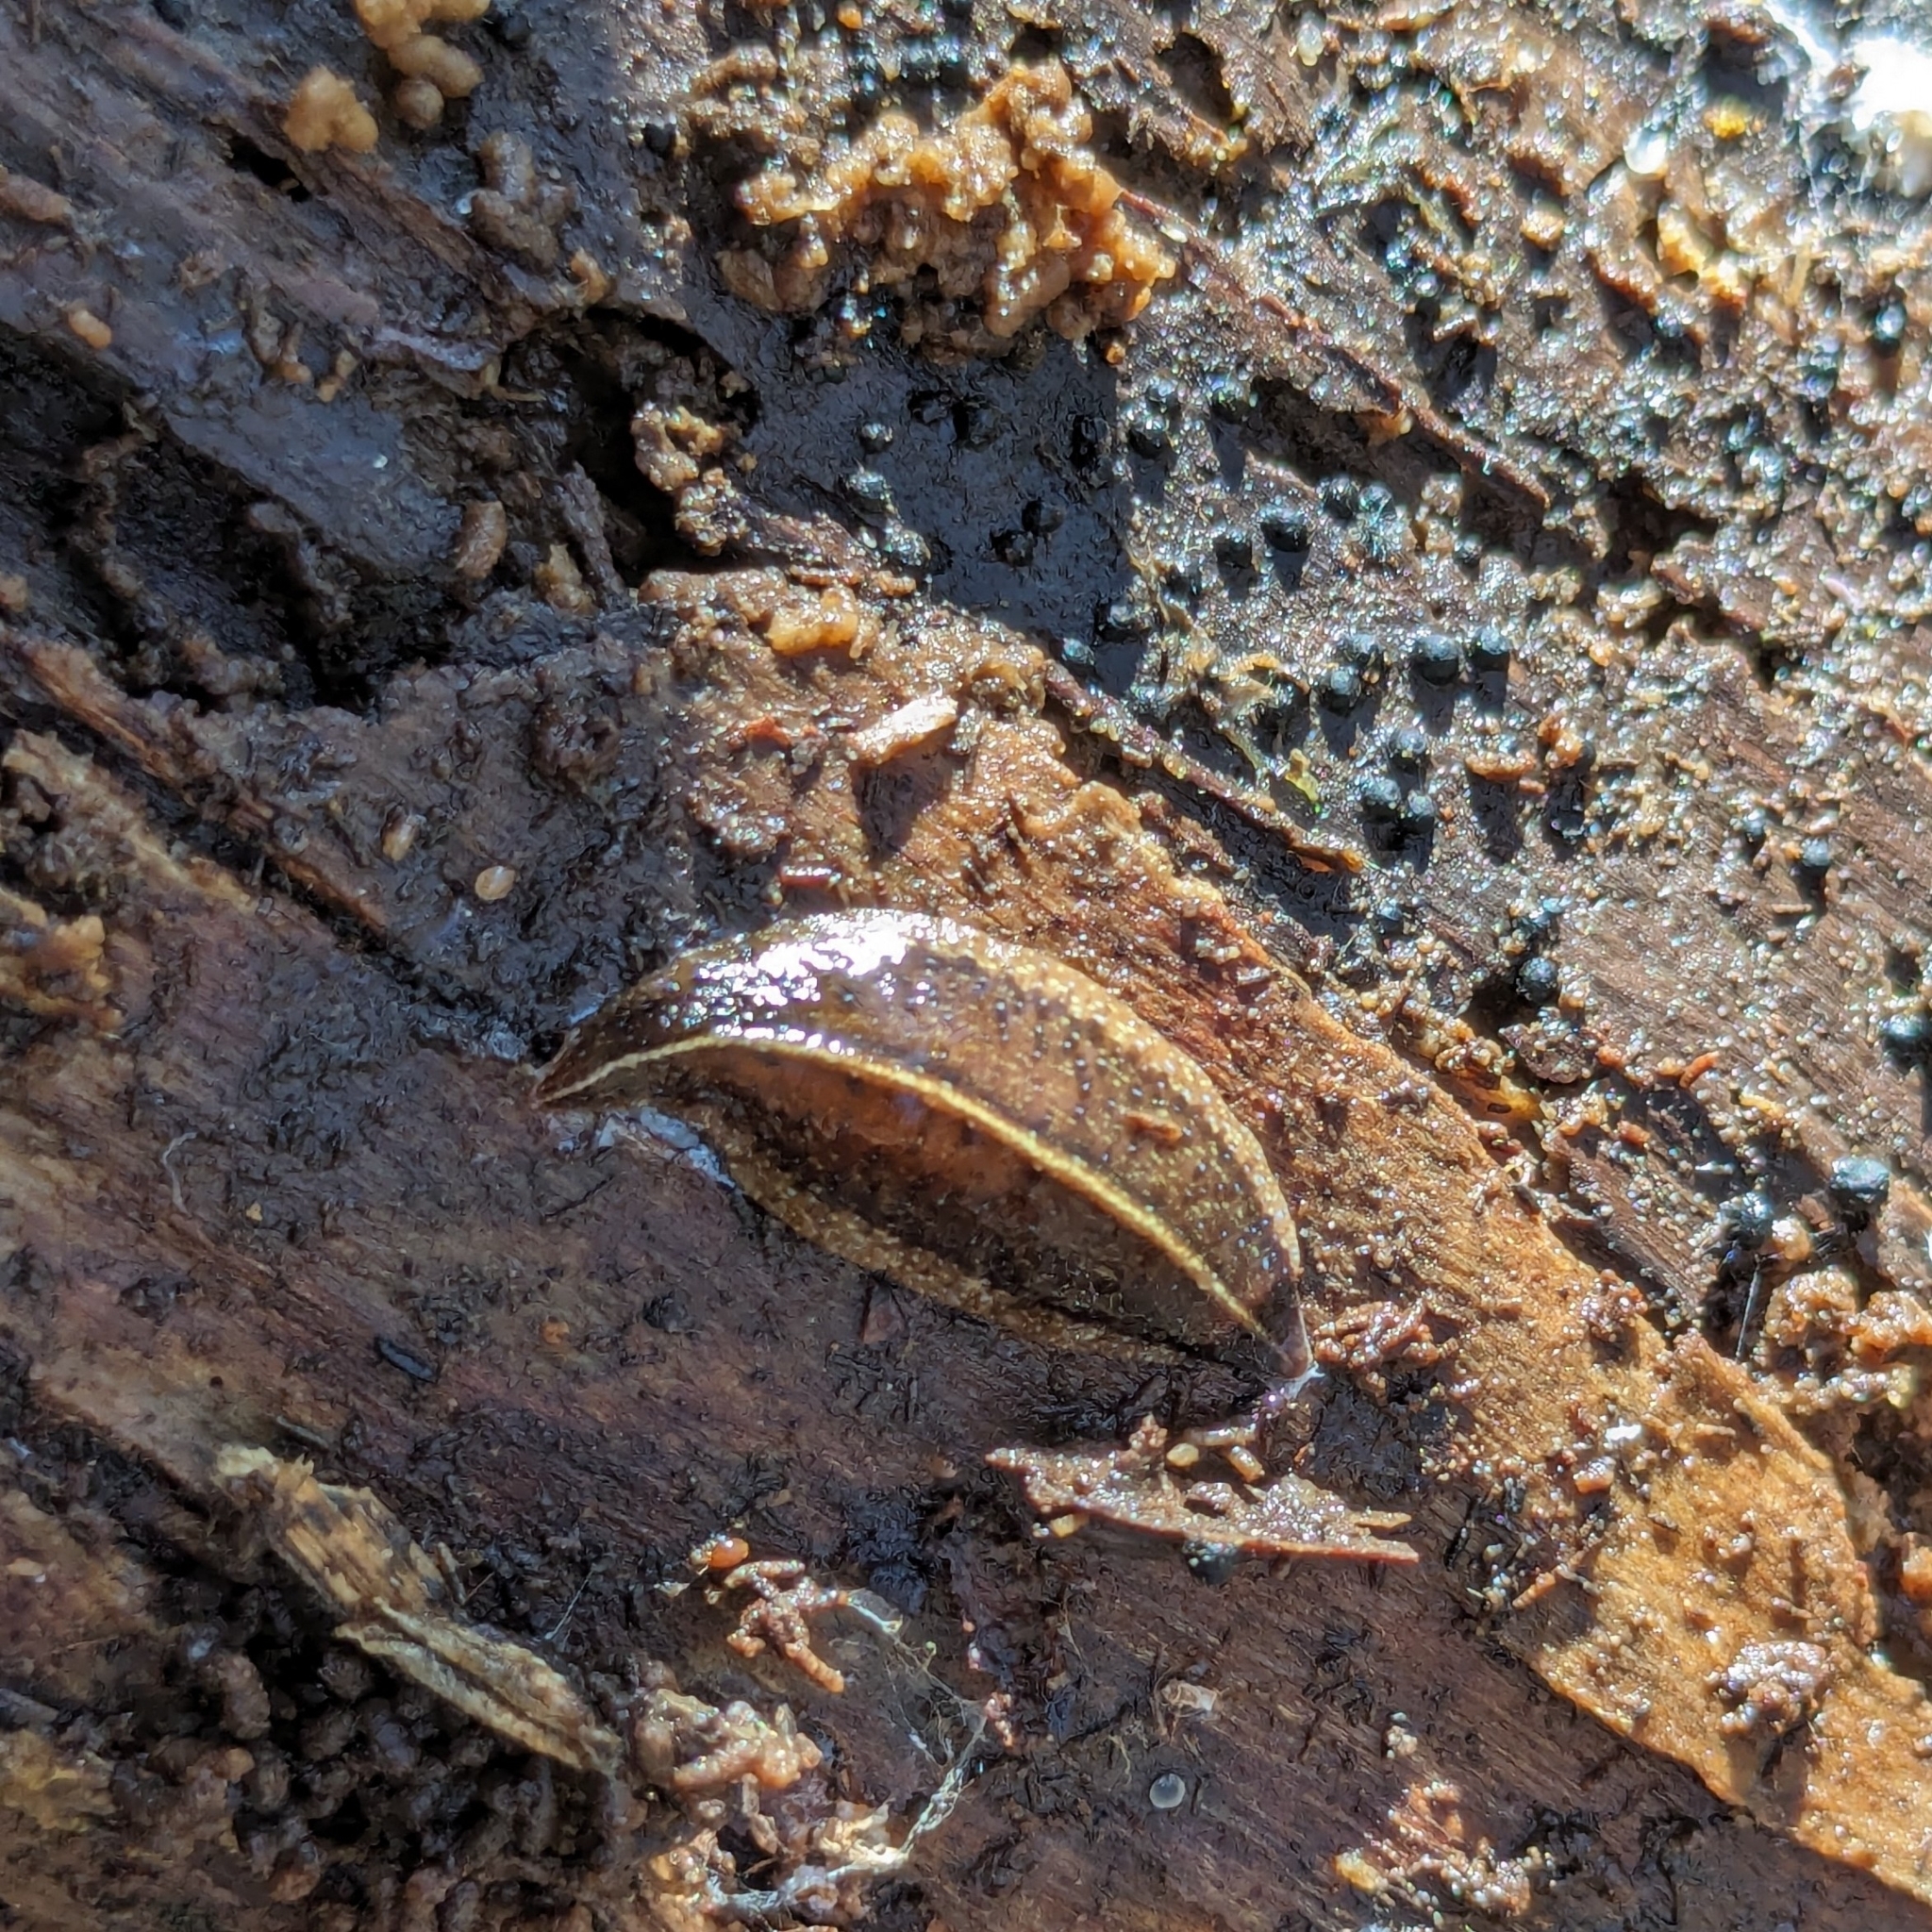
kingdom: Animalia
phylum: Platyhelminthes
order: Tricladida
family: Geoplanidae
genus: Newzealandia
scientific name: Newzealandia graffii
